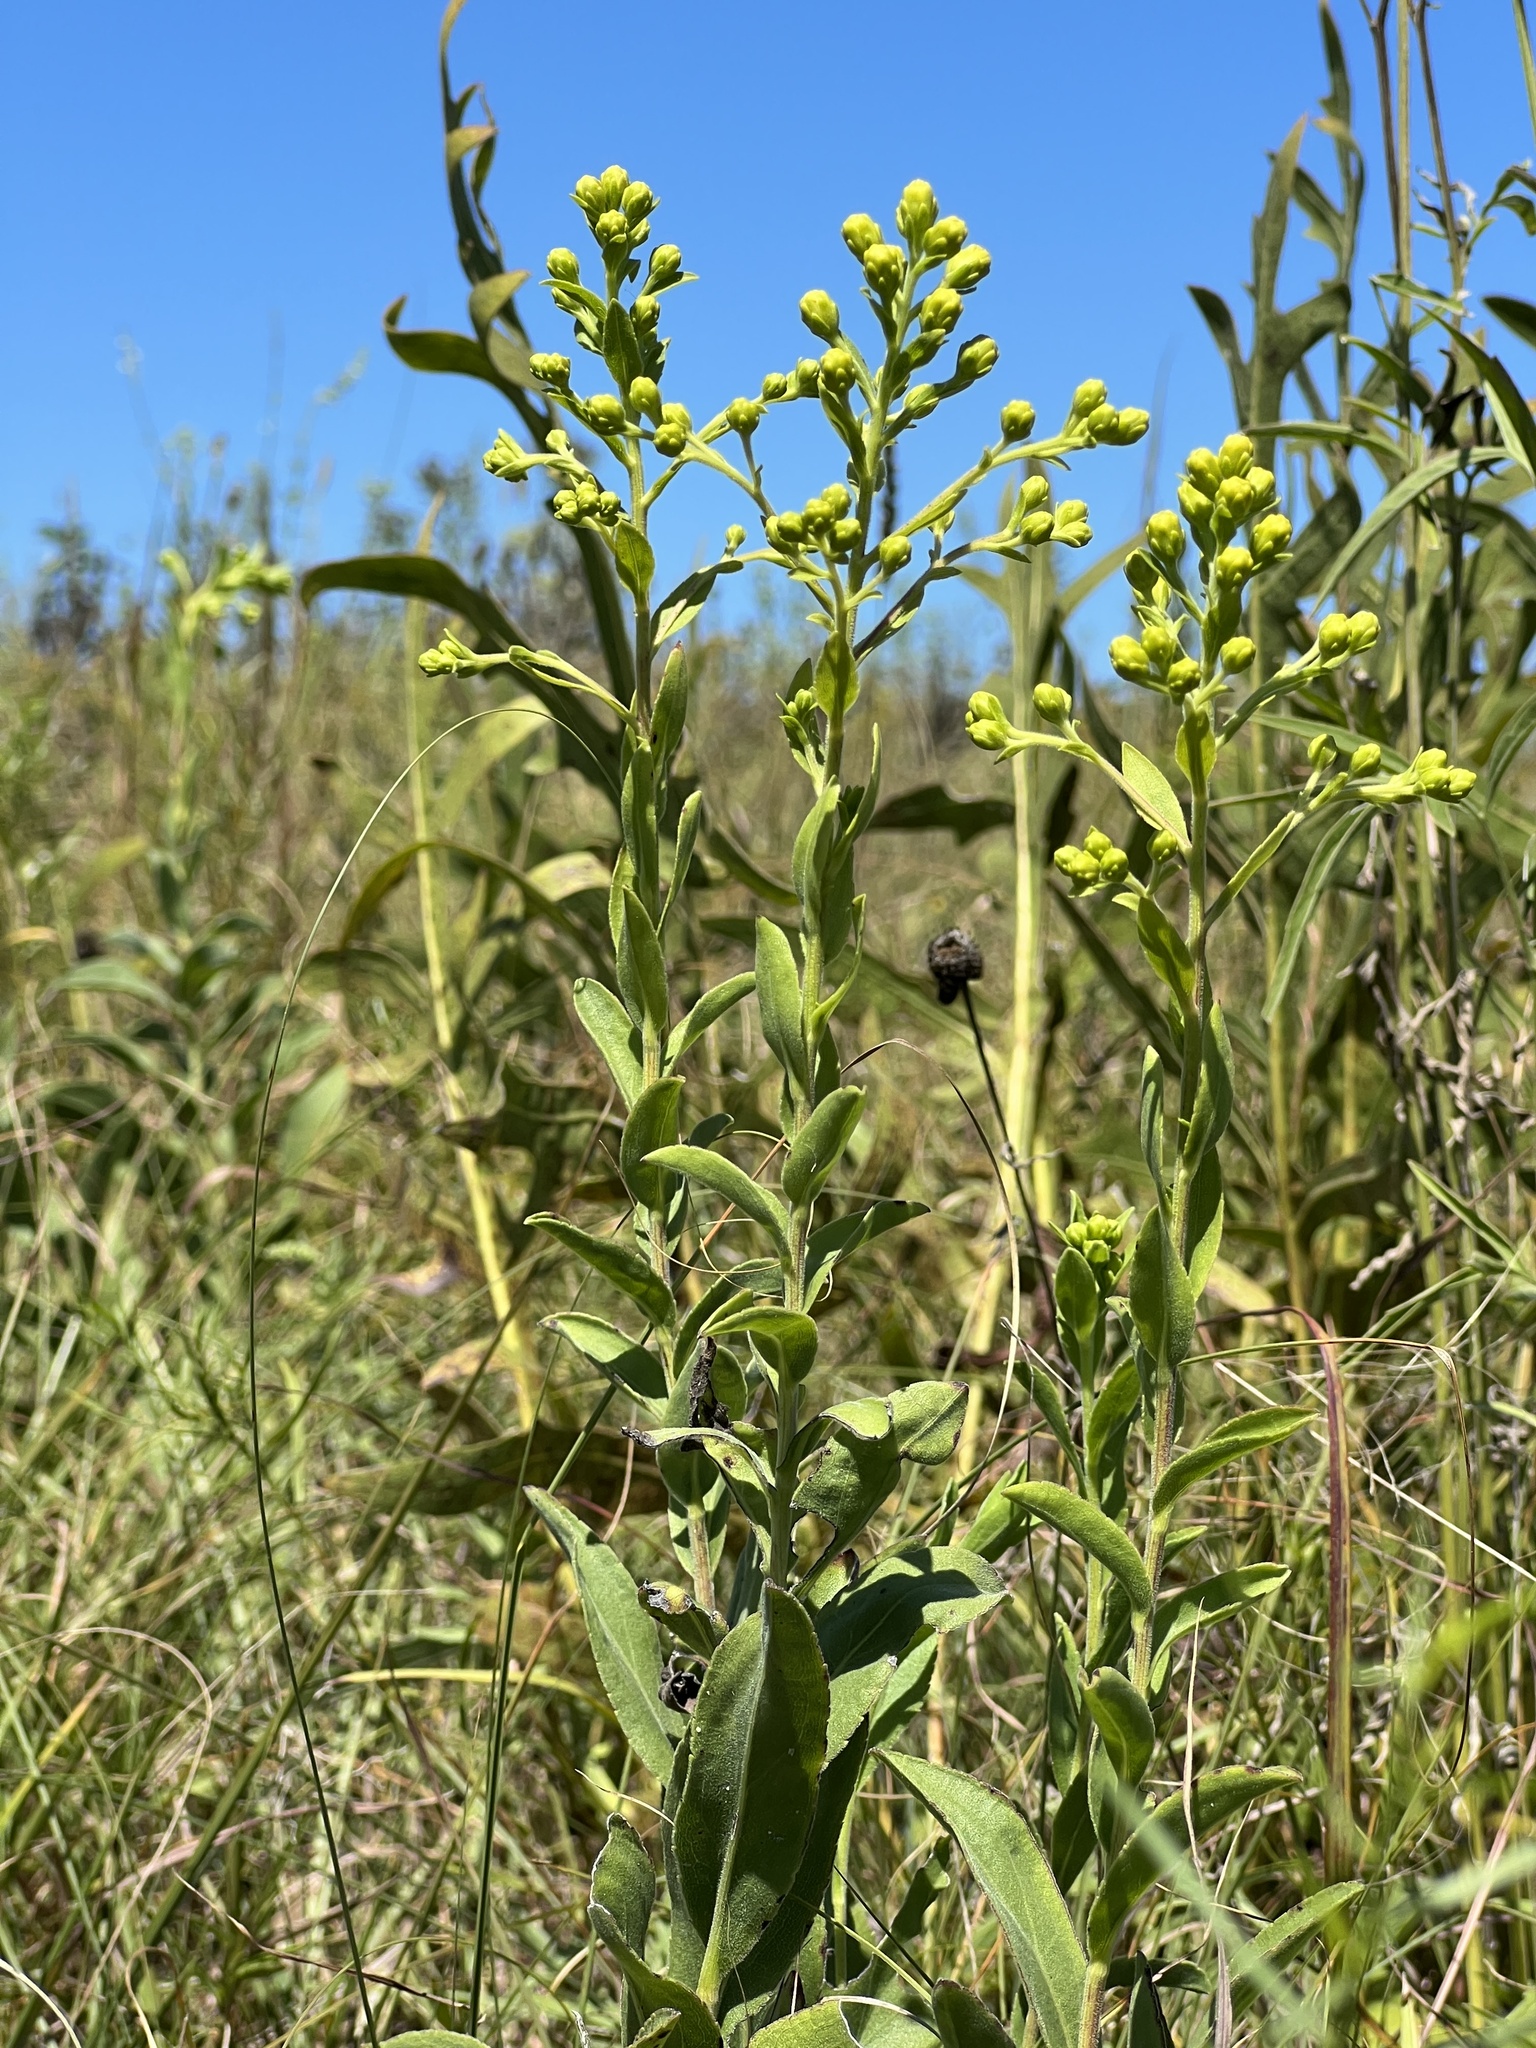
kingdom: Plantae
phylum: Tracheophyta
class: Magnoliopsida
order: Asterales
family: Asteraceae
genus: Solidago
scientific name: Solidago rigida
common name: Rigid goldenrod
